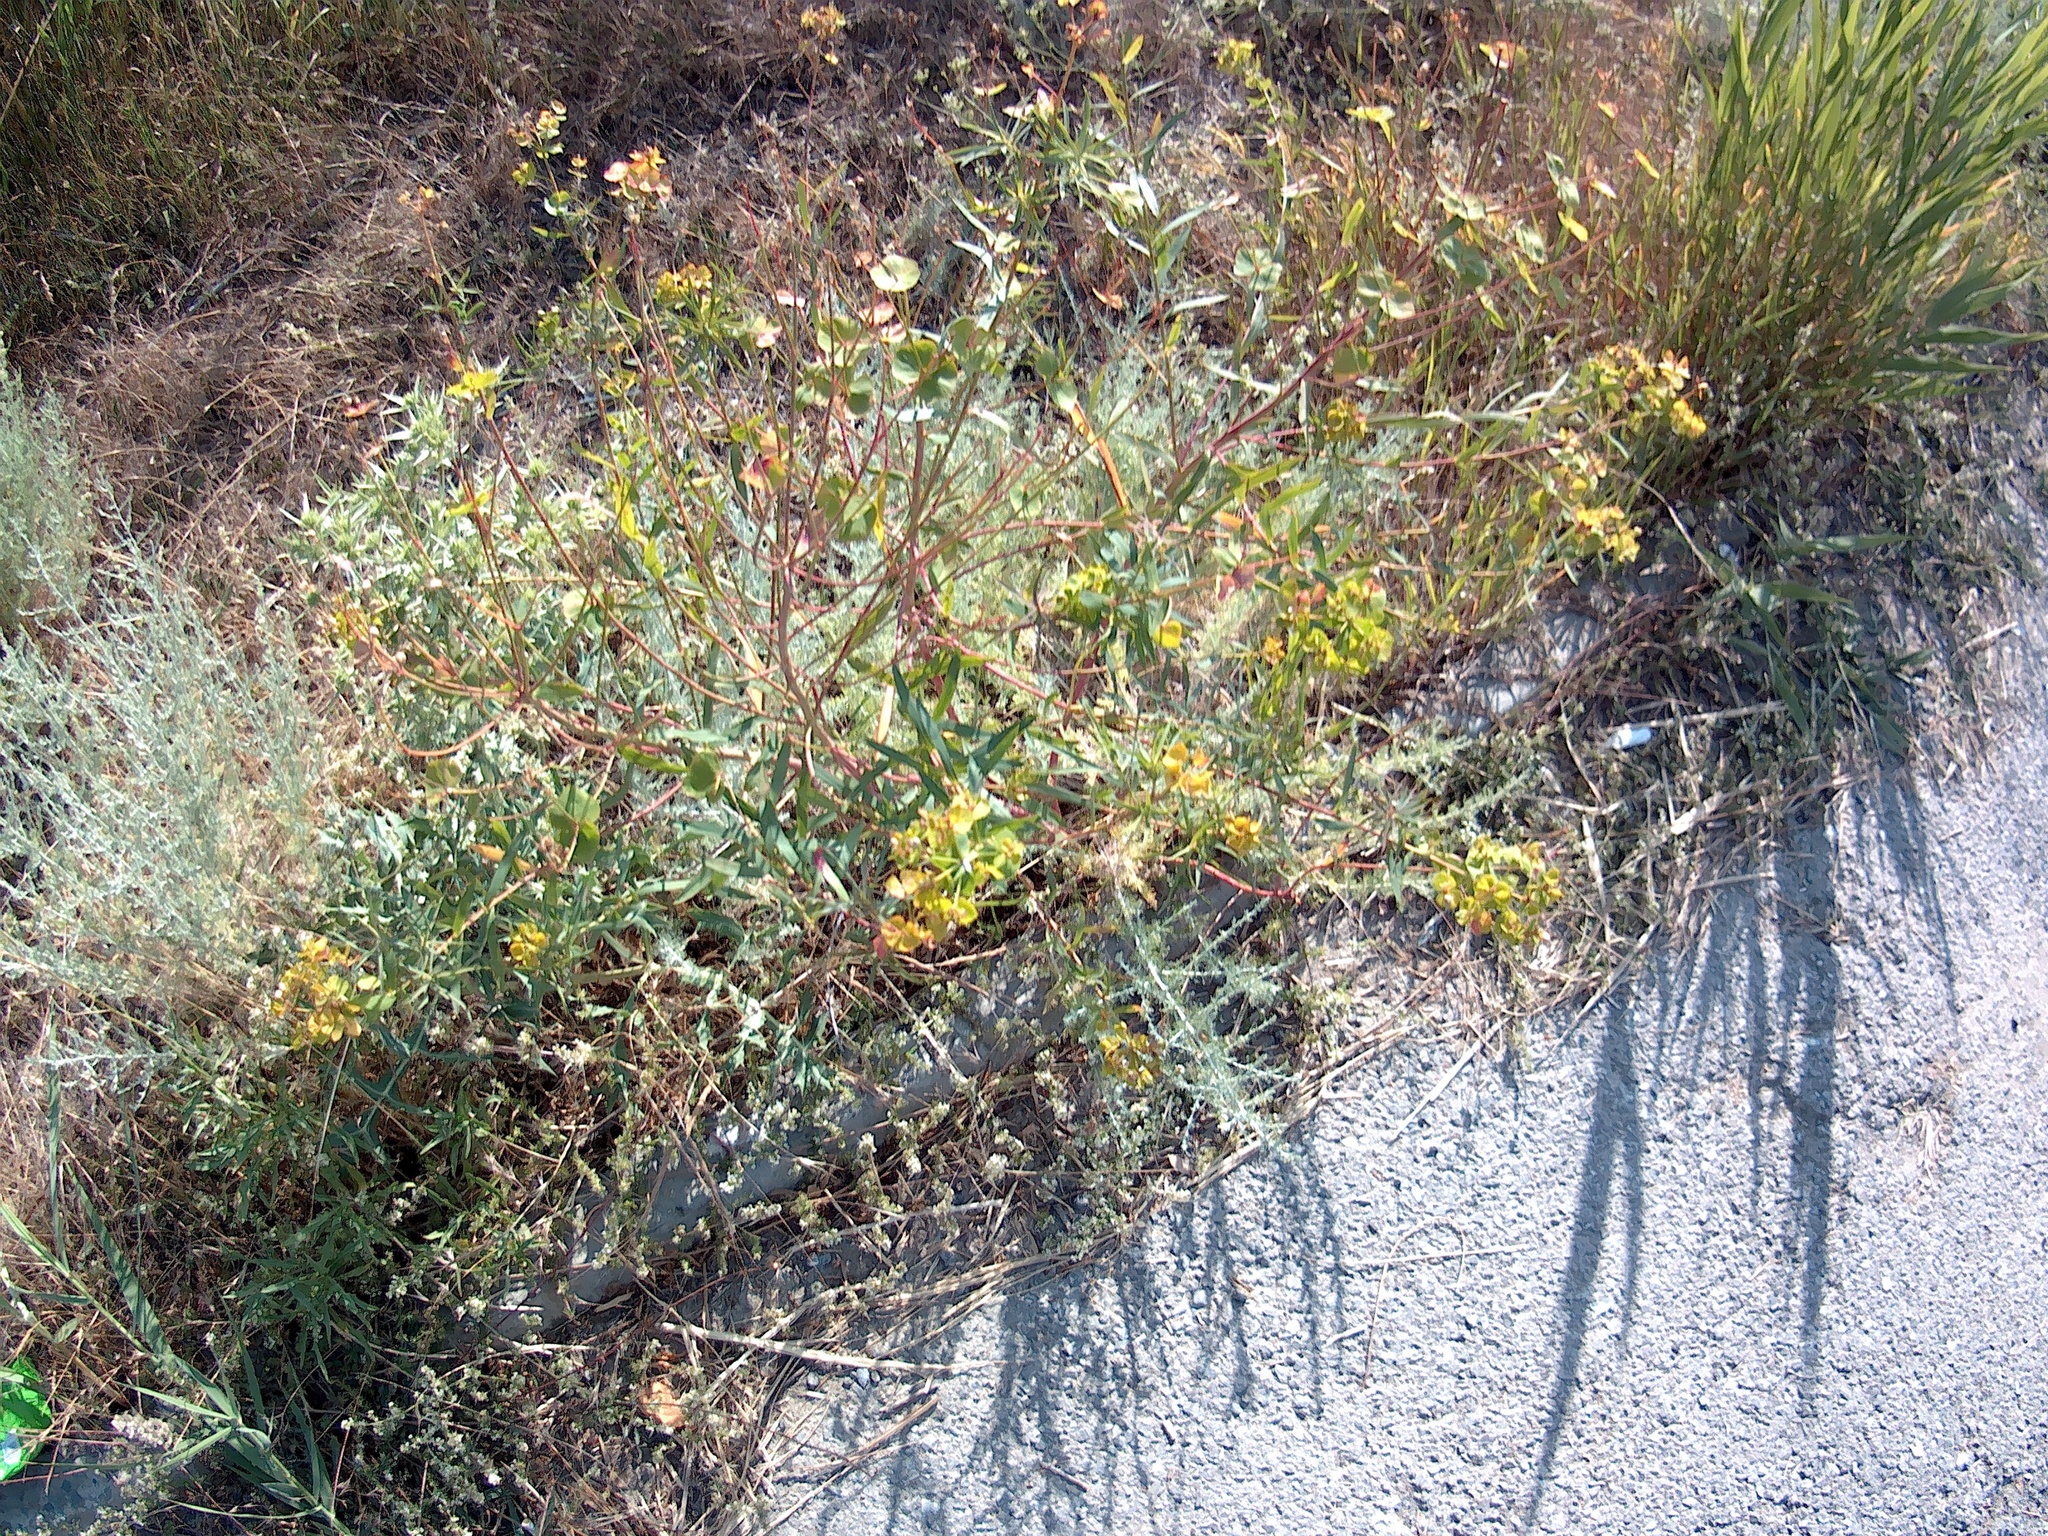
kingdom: Plantae
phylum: Tracheophyta
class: Magnoliopsida
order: Malpighiales
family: Euphorbiaceae
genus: Euphorbia
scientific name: Euphorbia virgata
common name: Leafy spurge
